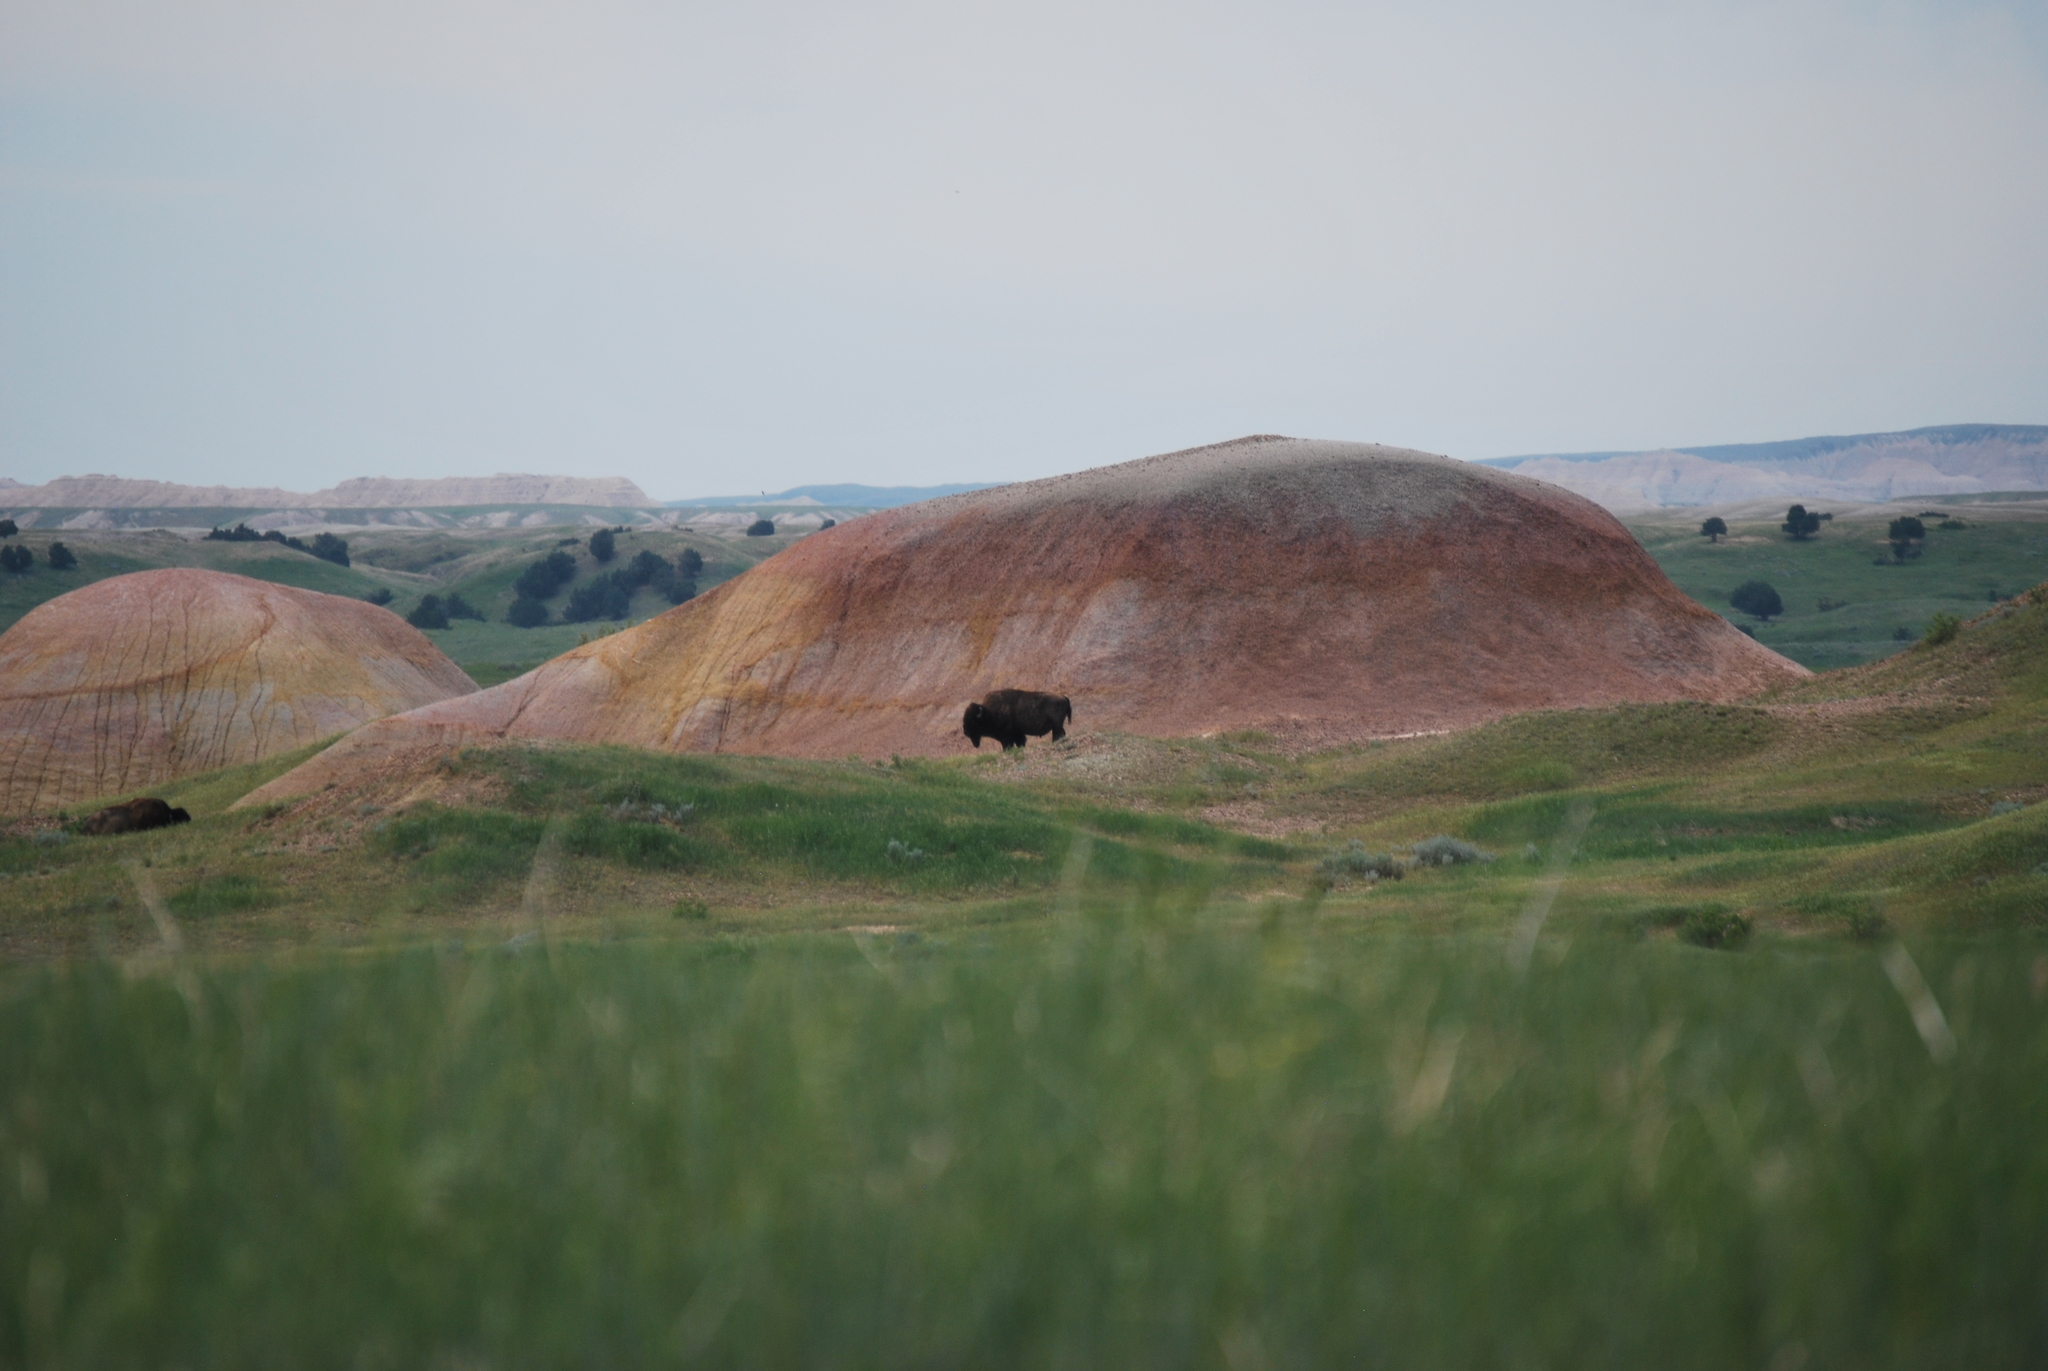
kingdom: Animalia
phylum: Chordata
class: Mammalia
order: Artiodactyla
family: Bovidae
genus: Bison
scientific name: Bison bison
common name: American bison
